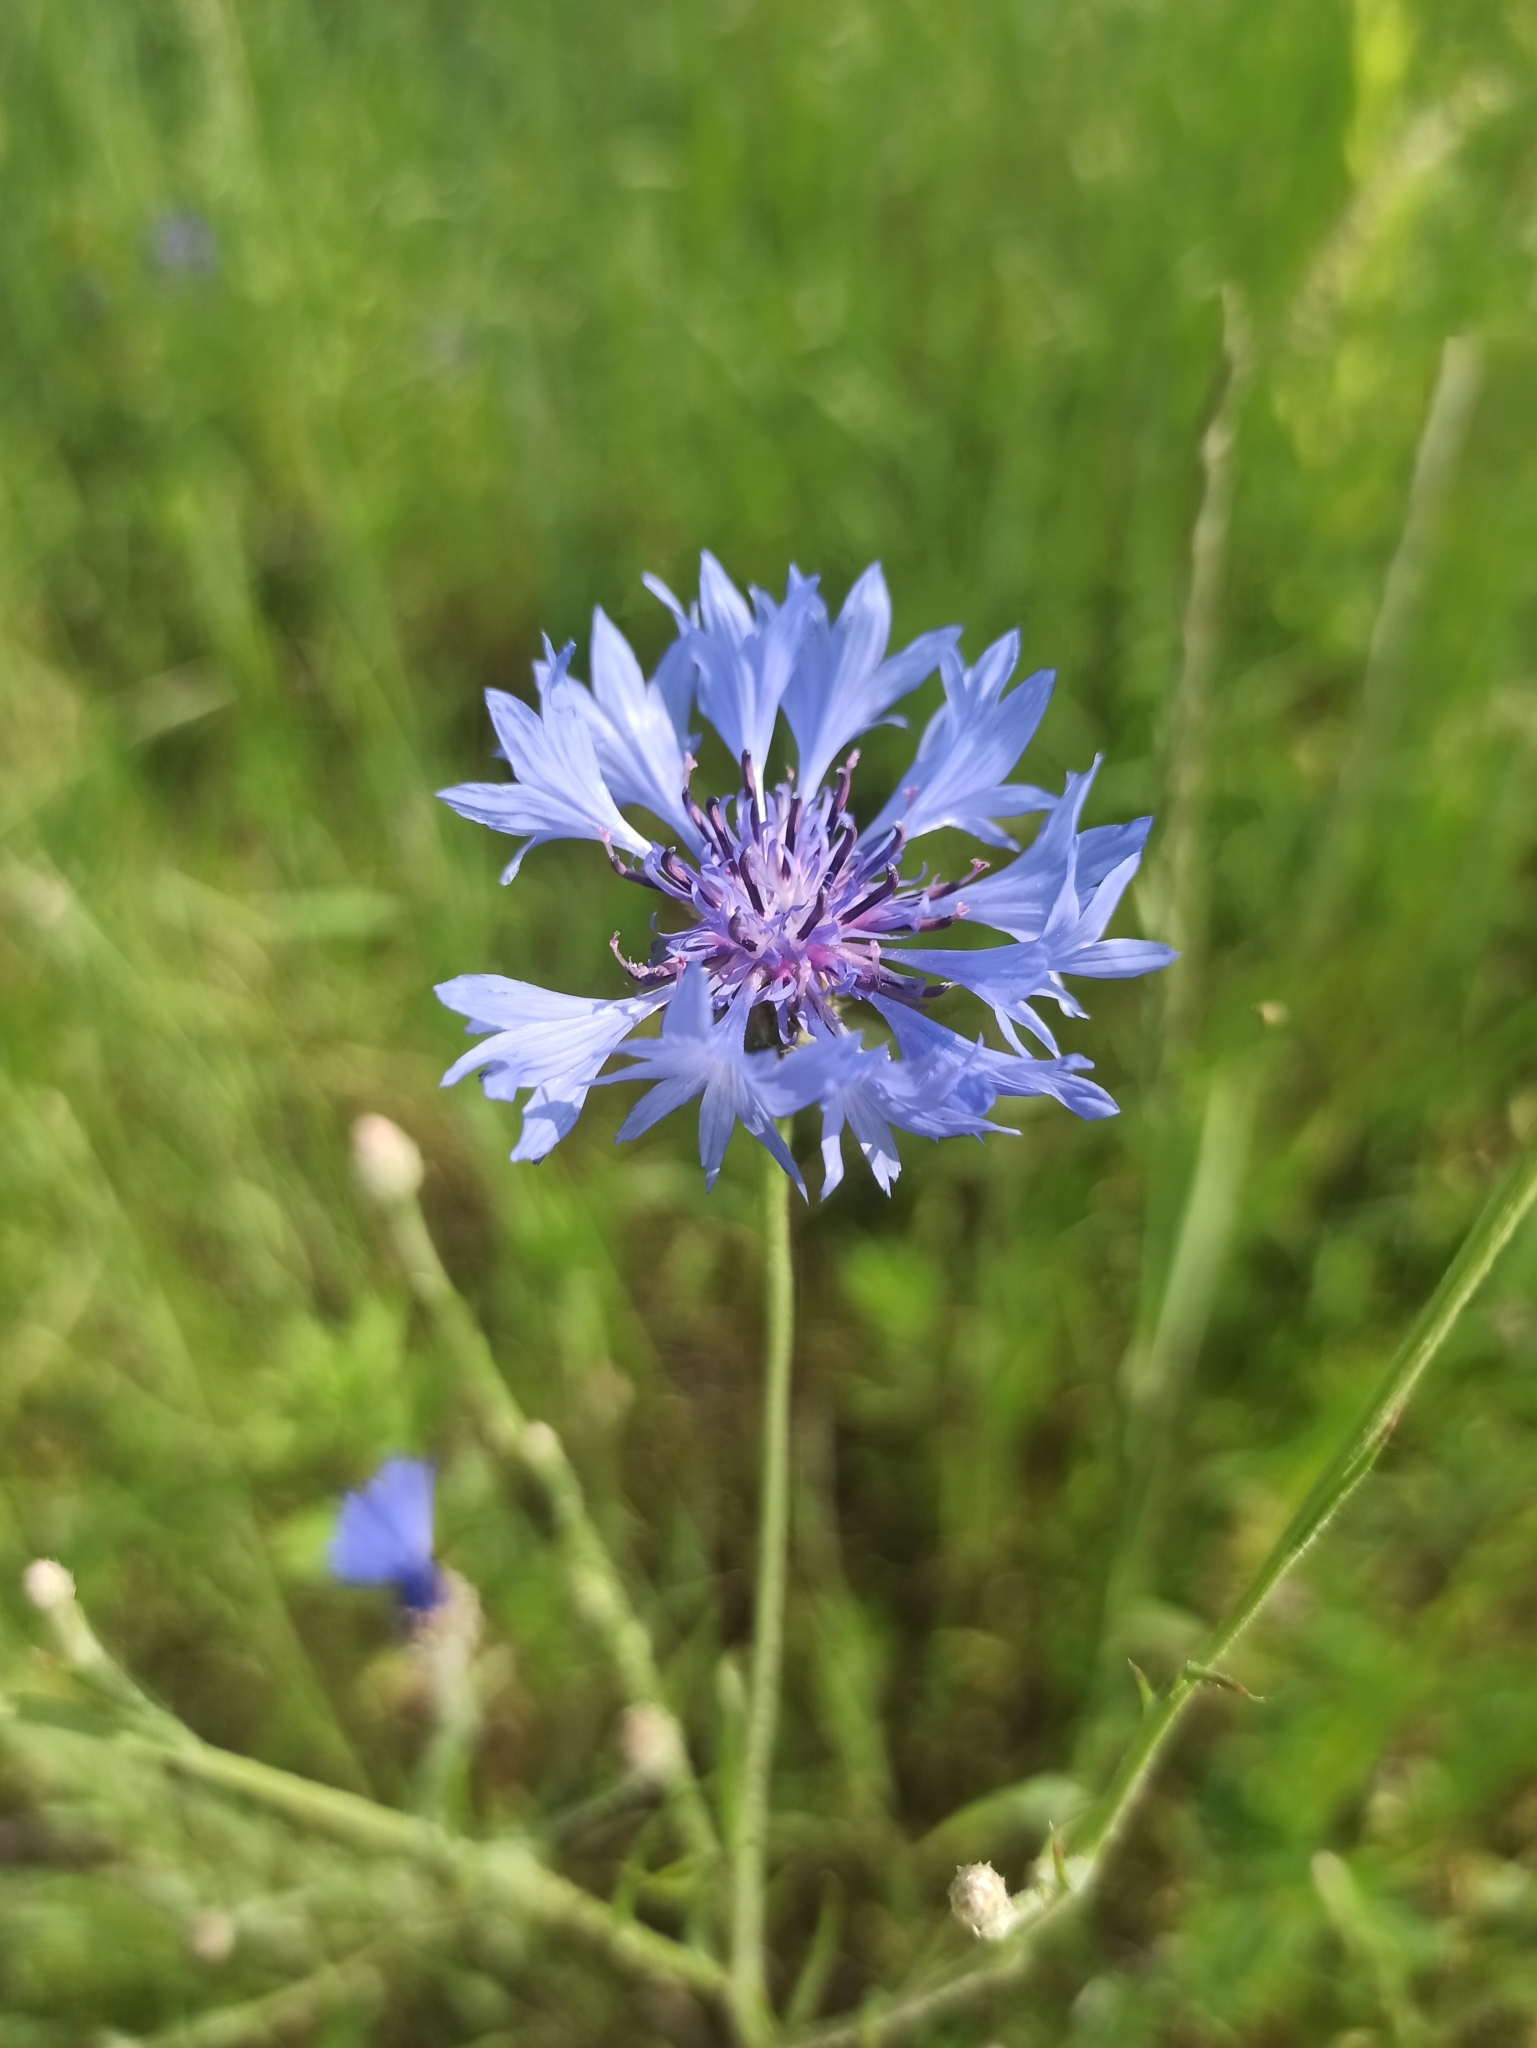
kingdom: Plantae
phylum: Tracheophyta
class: Magnoliopsida
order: Asterales
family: Asteraceae
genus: Centaurea
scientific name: Centaurea cyanus
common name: Cornflower
